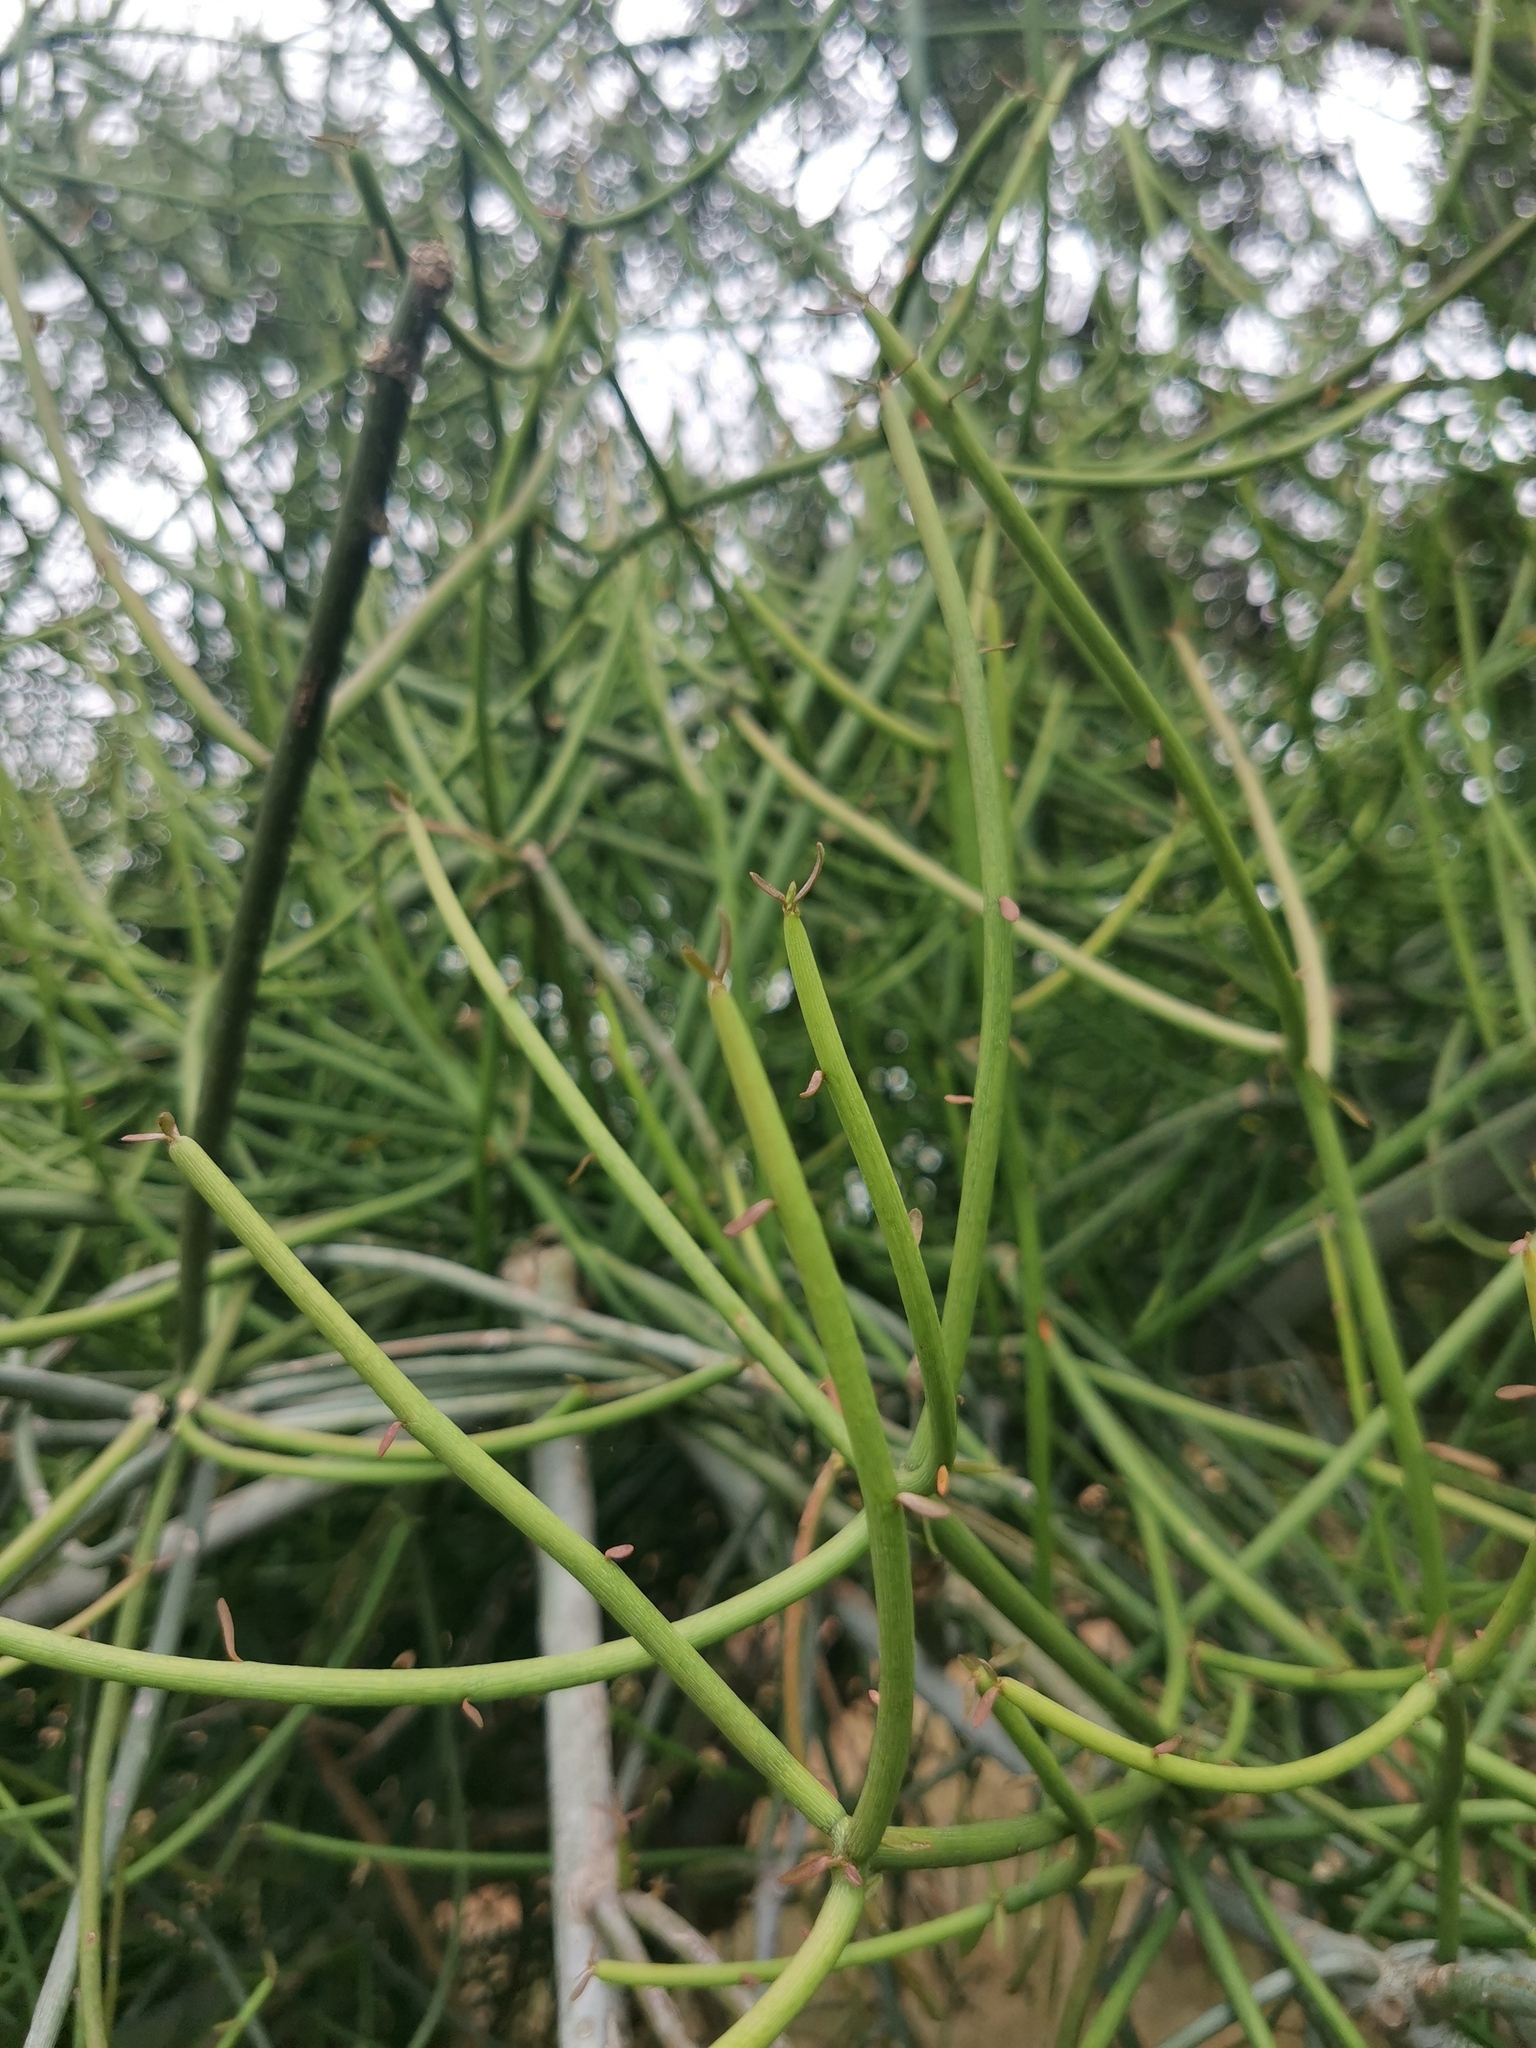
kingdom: Plantae
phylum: Tracheophyta
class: Magnoliopsida
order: Malpighiales
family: Euphorbiaceae
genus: Euphorbia
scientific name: Euphorbia tirucalli
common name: Indiantree spurge
